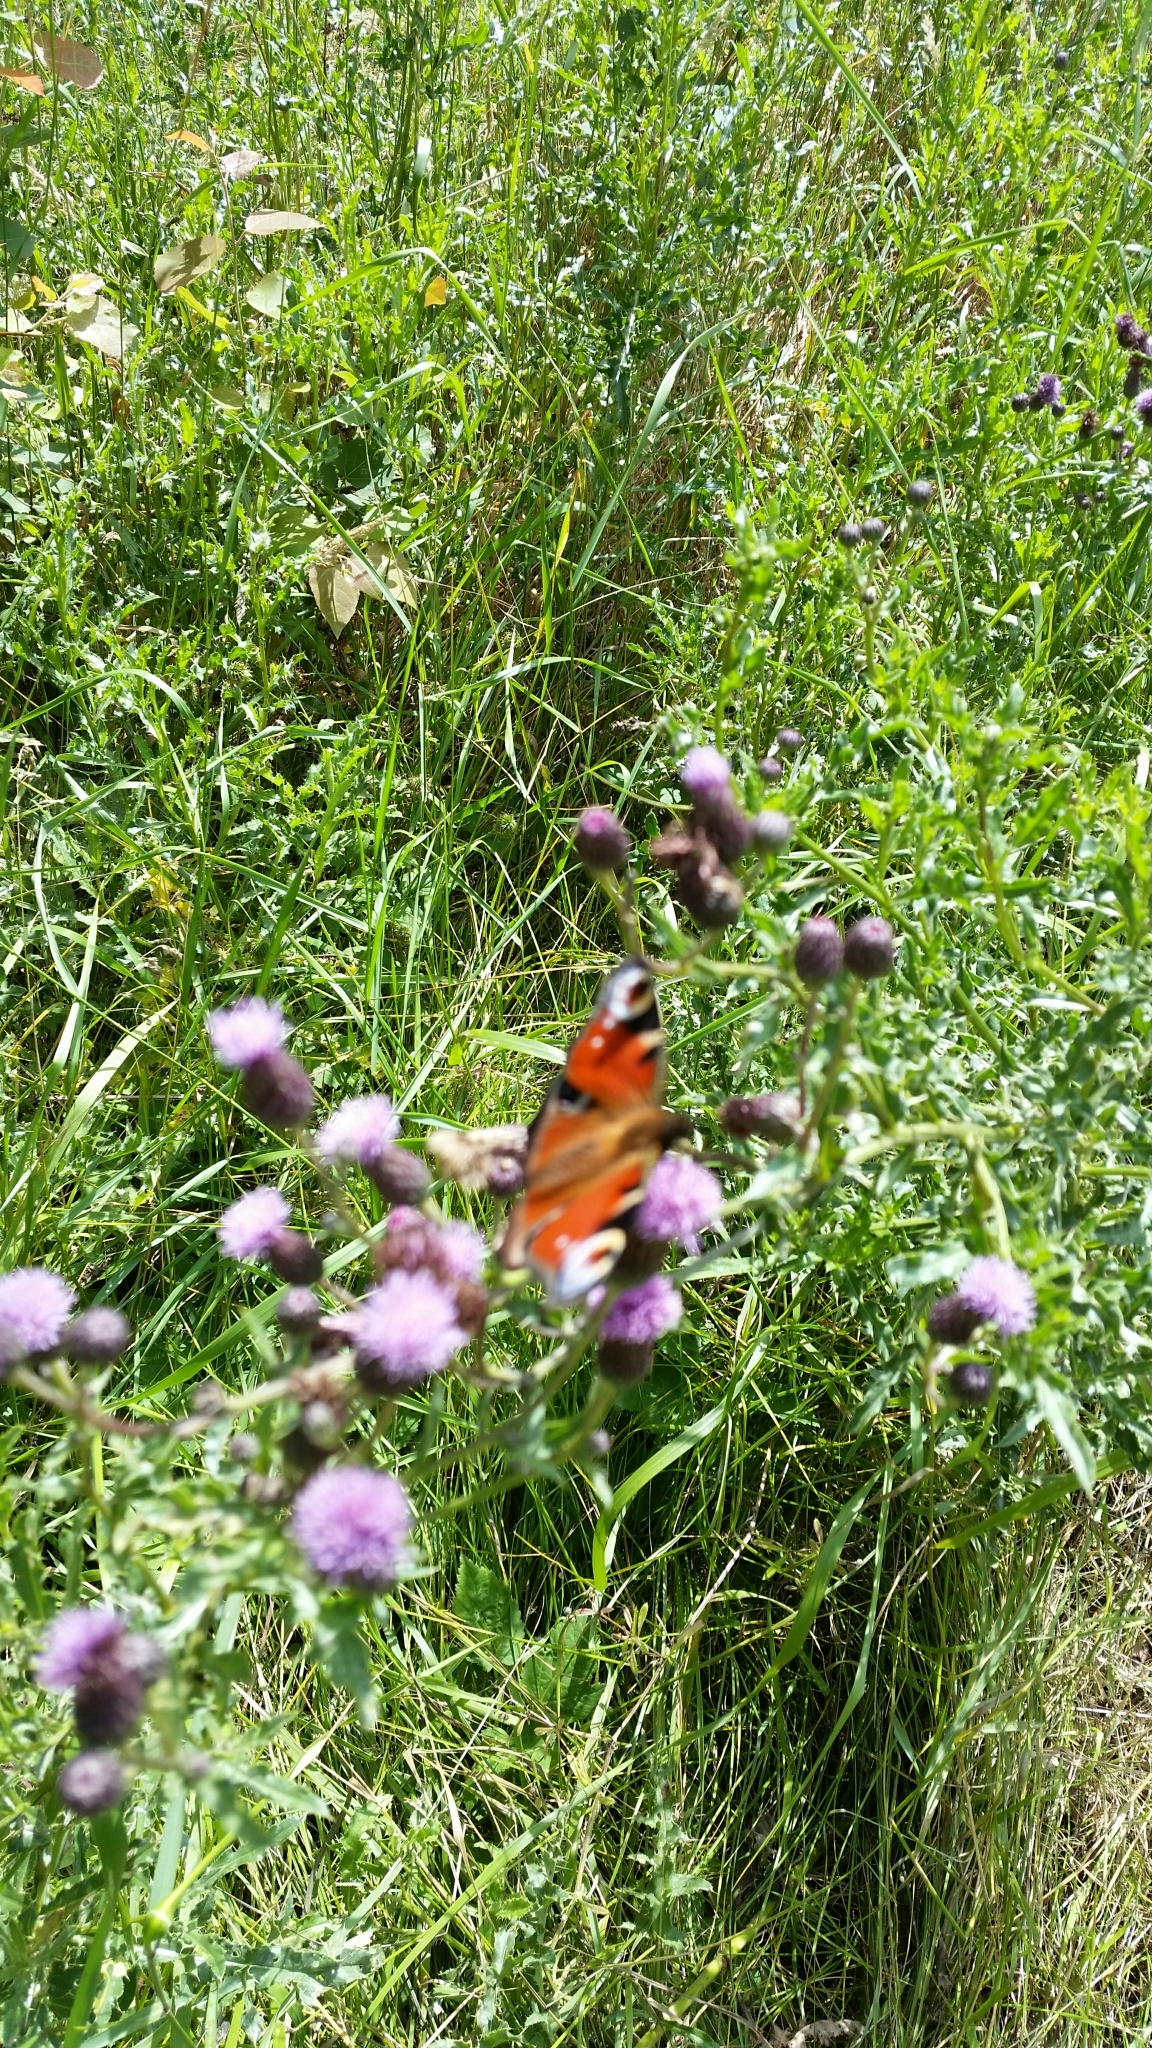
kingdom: Animalia
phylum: Arthropoda
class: Insecta
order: Lepidoptera
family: Nymphalidae
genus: Aglais
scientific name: Aglais io
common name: Peacock
